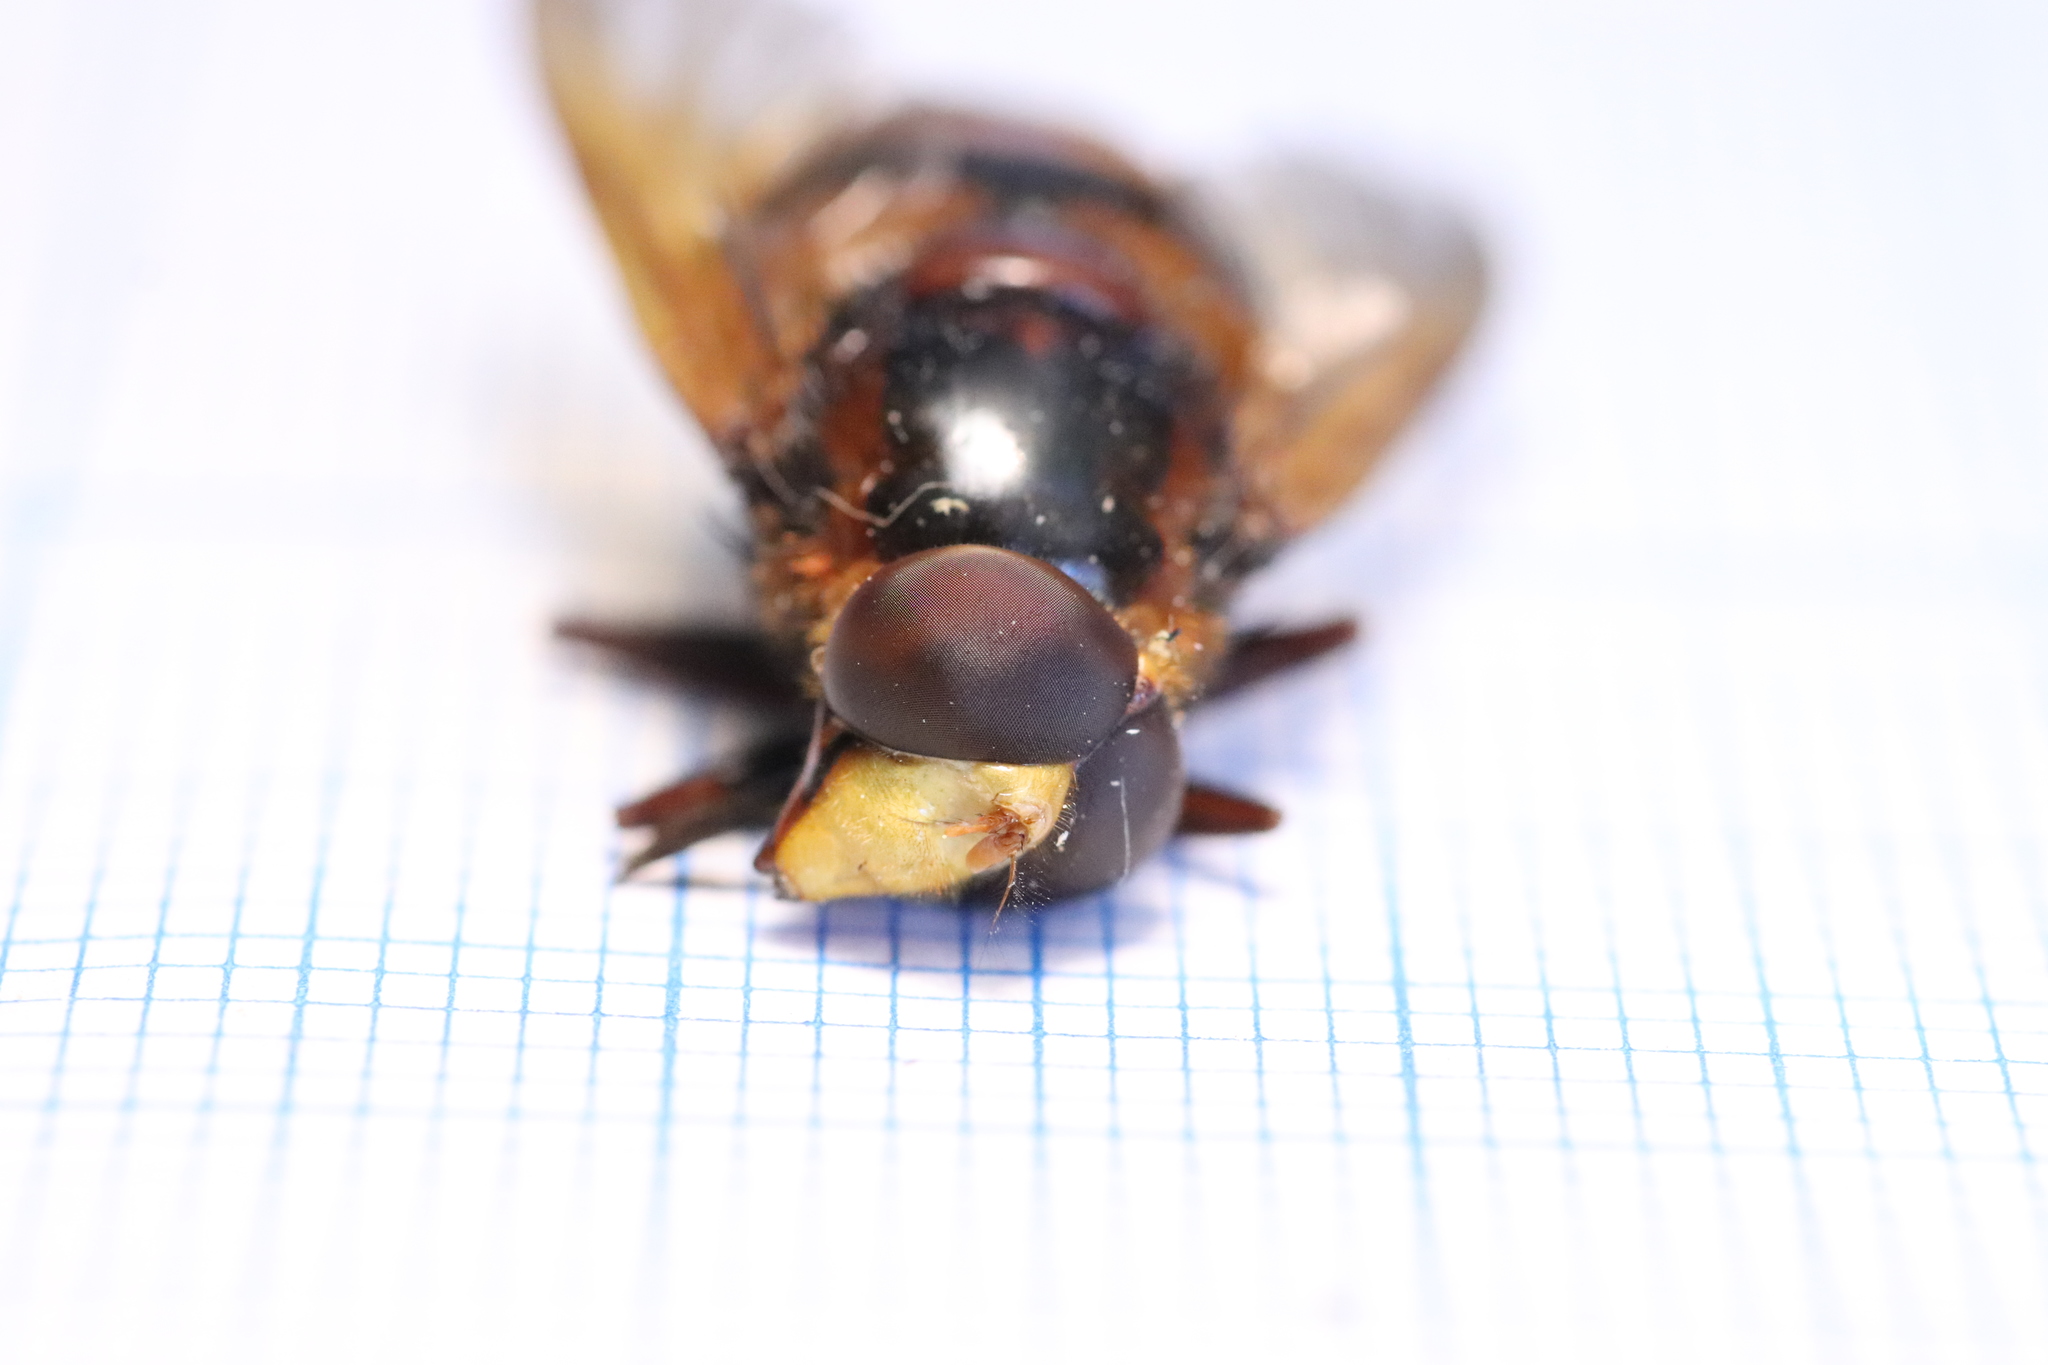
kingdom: Animalia
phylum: Arthropoda
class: Insecta
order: Diptera
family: Syrphidae
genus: Volucella
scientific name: Volucella zonaria
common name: Hornet hoverfly
